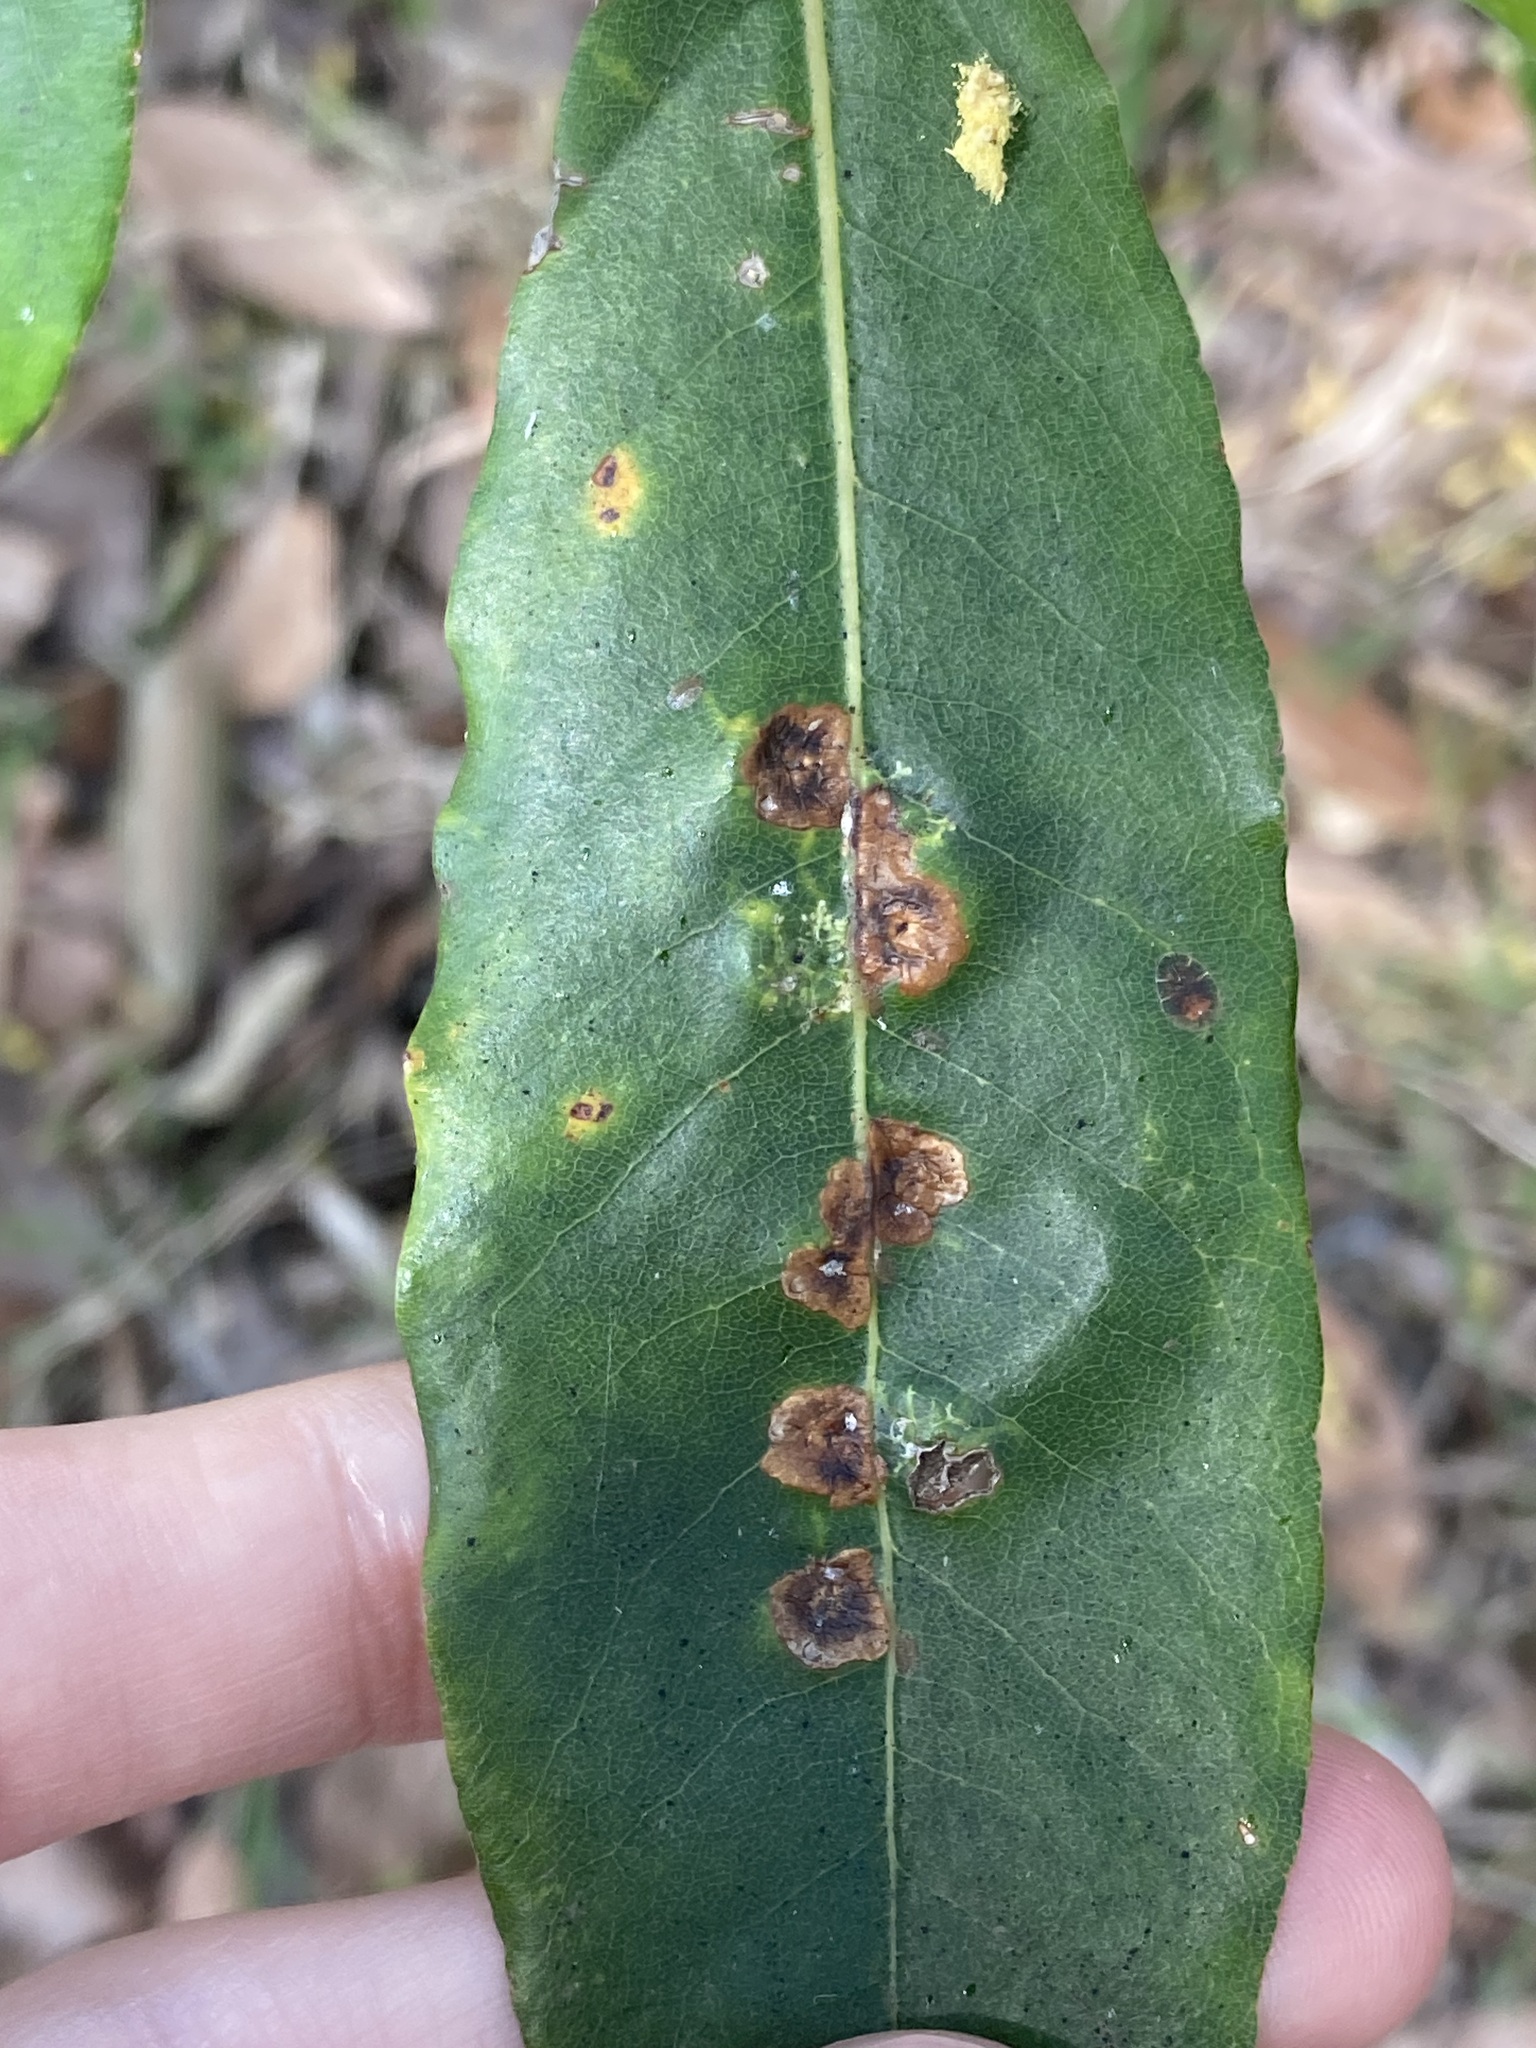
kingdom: Animalia
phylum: Arthropoda
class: Insecta
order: Diptera
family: Agromyzidae
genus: Phytoliriomyza
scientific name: Phytoliriomyza pittosporophylli
